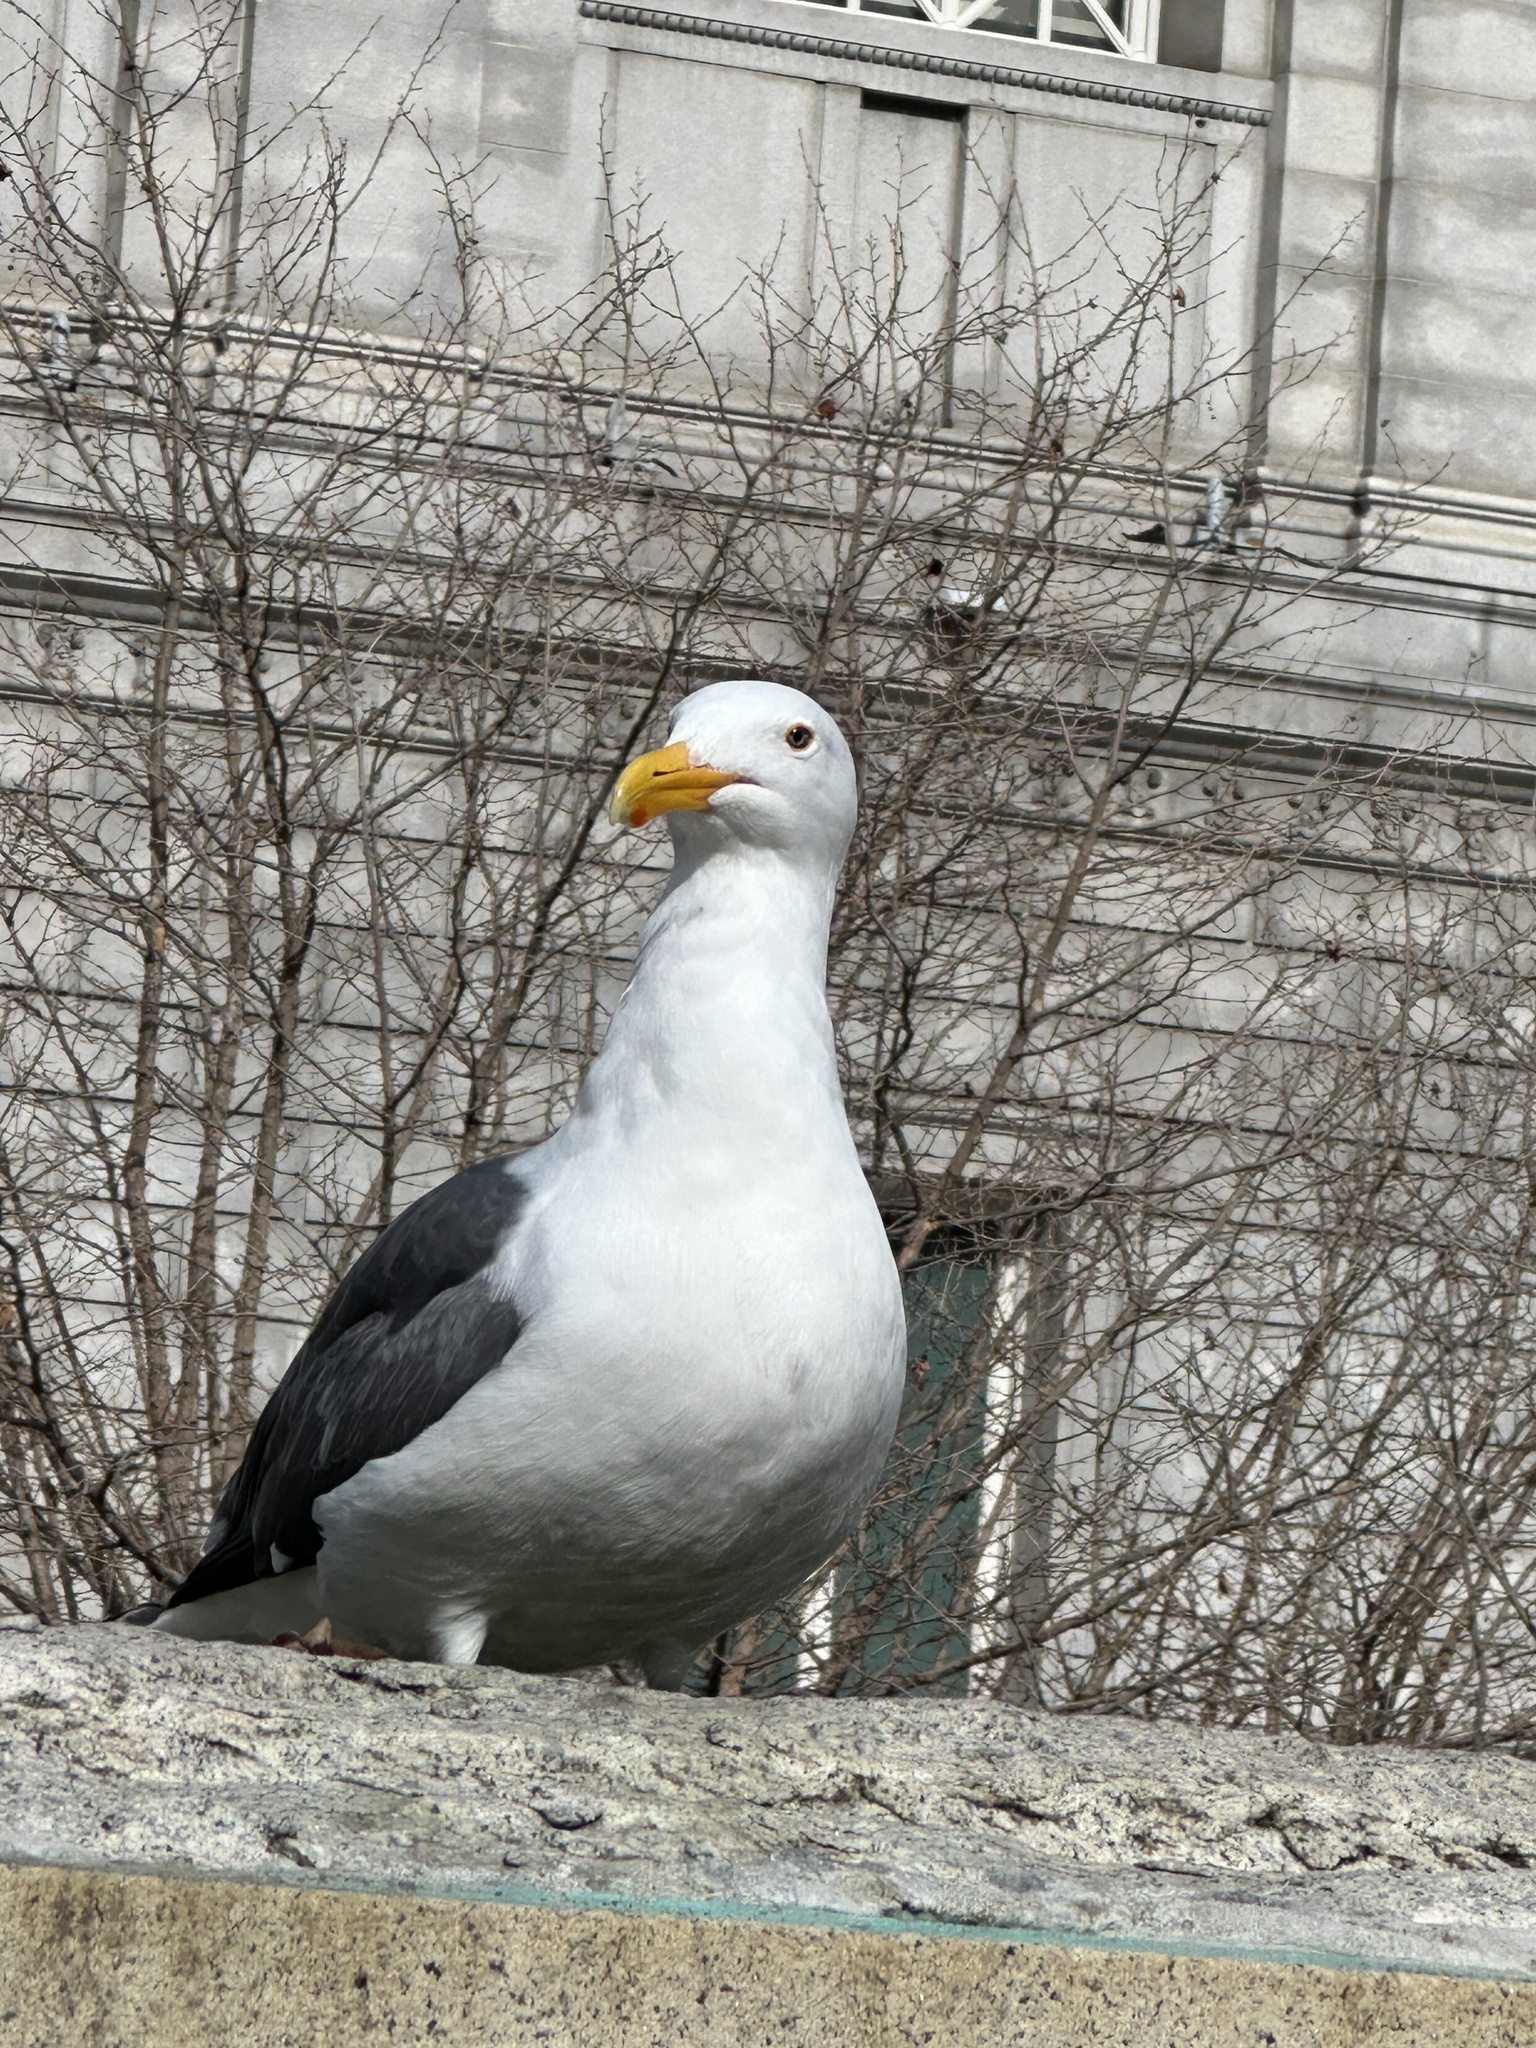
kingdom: Animalia
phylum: Chordata
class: Aves
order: Charadriiformes
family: Laridae
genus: Larus
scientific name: Larus occidentalis
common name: Western gull
